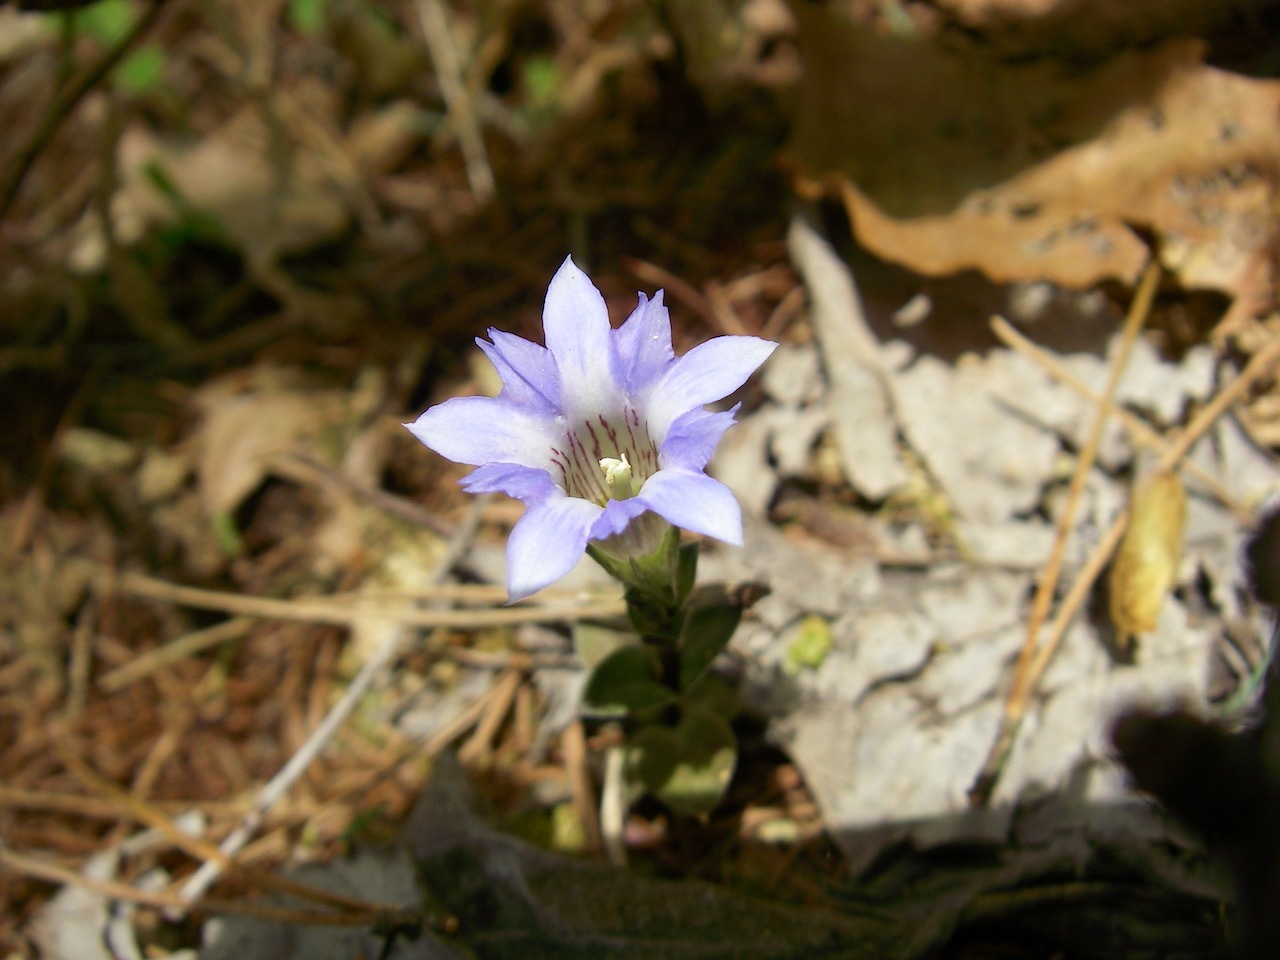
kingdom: Plantae
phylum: Tracheophyta
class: Magnoliopsida
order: Gentianales
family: Gentianaceae
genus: Gentiana
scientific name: Gentiana zollingeri
